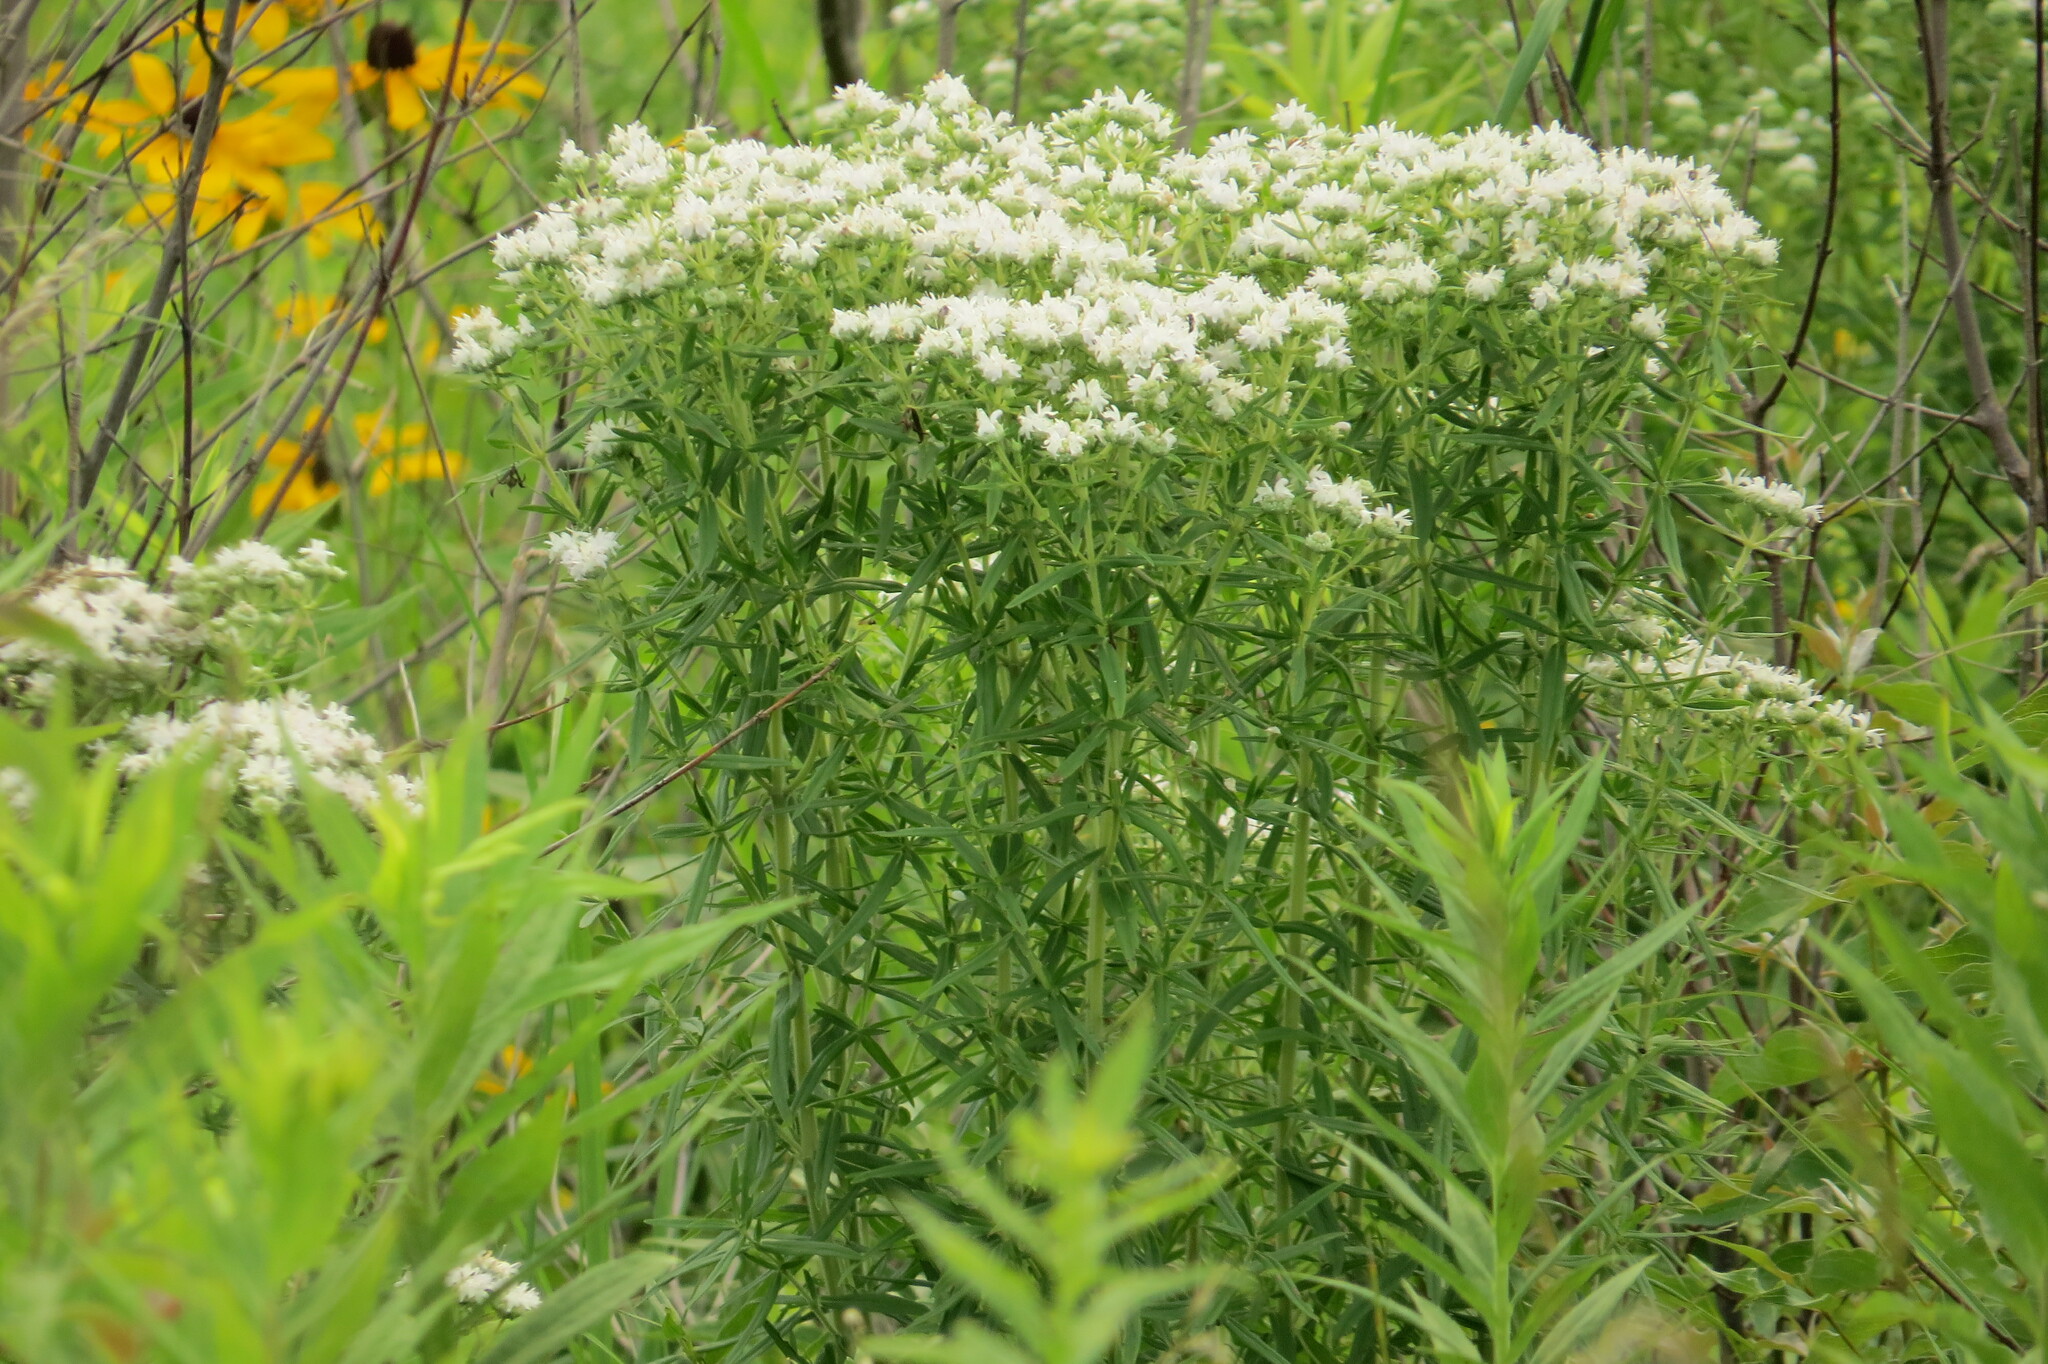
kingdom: Plantae
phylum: Tracheophyta
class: Magnoliopsida
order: Lamiales
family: Lamiaceae
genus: Pycnanthemum
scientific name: Pycnanthemum virginianum
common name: Virginia mountain-mint
